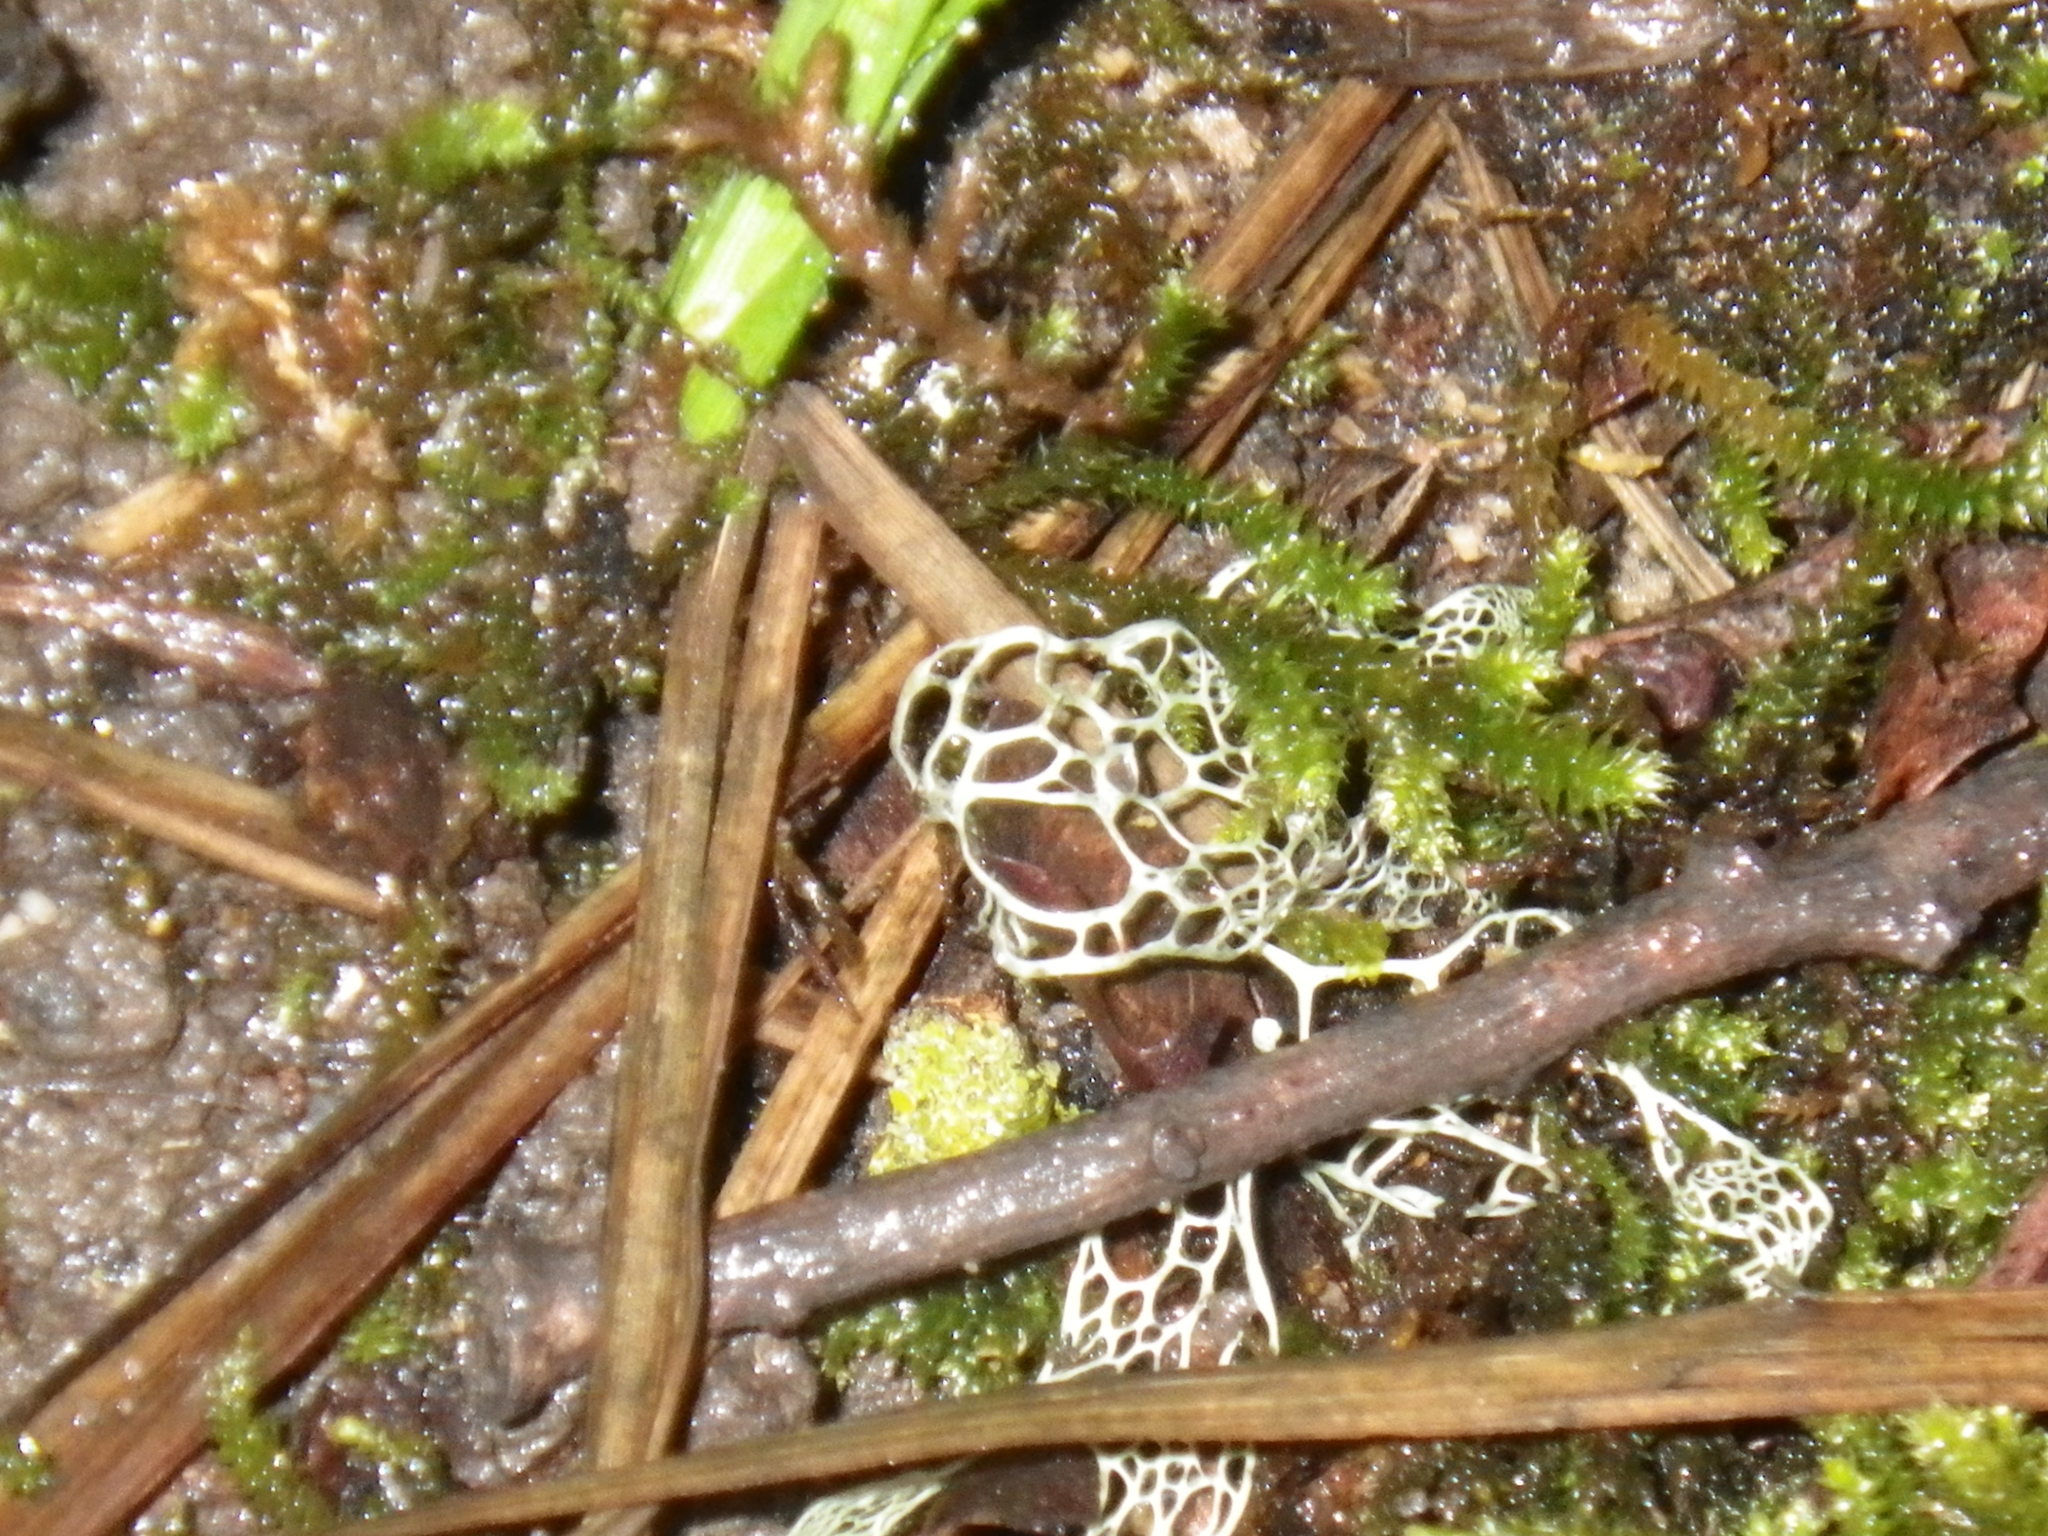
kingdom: Fungi
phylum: Ascomycota
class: Lecanoromycetes
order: Lecanorales
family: Ramalinaceae
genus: Ramalina
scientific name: Ramalina menziesii
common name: Lace lichen
